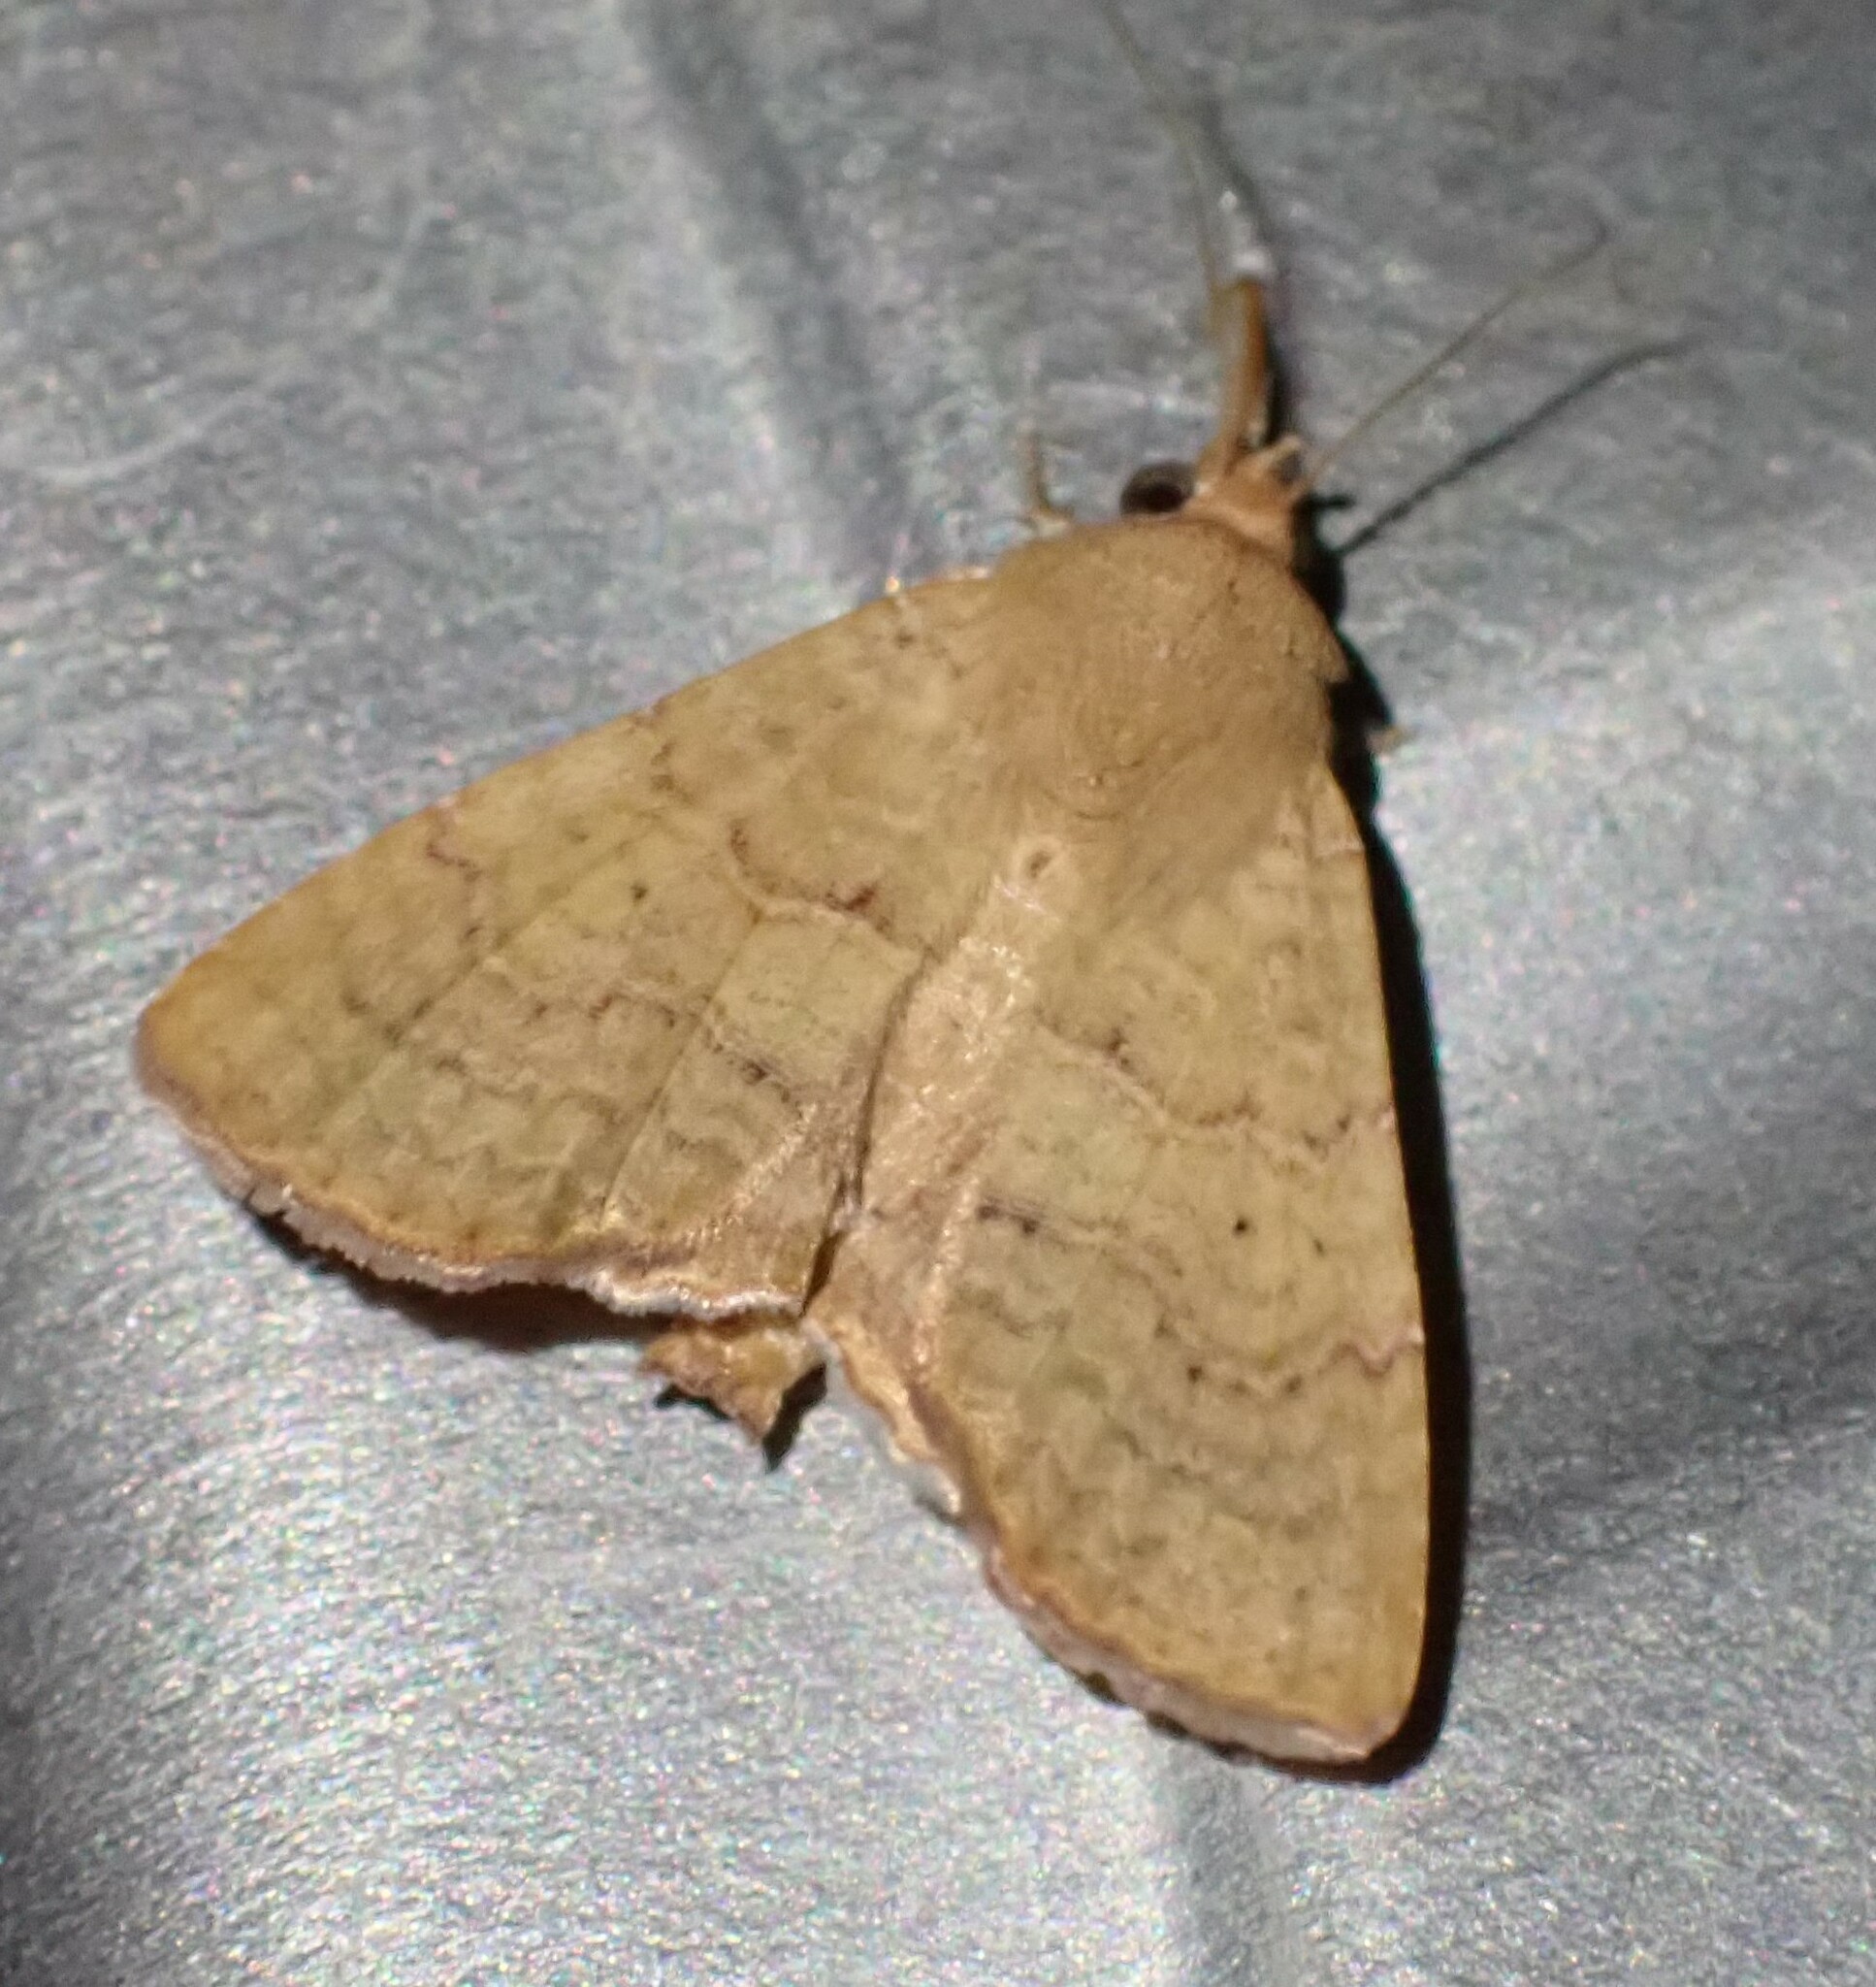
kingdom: Animalia
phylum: Arthropoda
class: Insecta
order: Lepidoptera
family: Euteliidae
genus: Eutelia
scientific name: Eutelia polychorda
